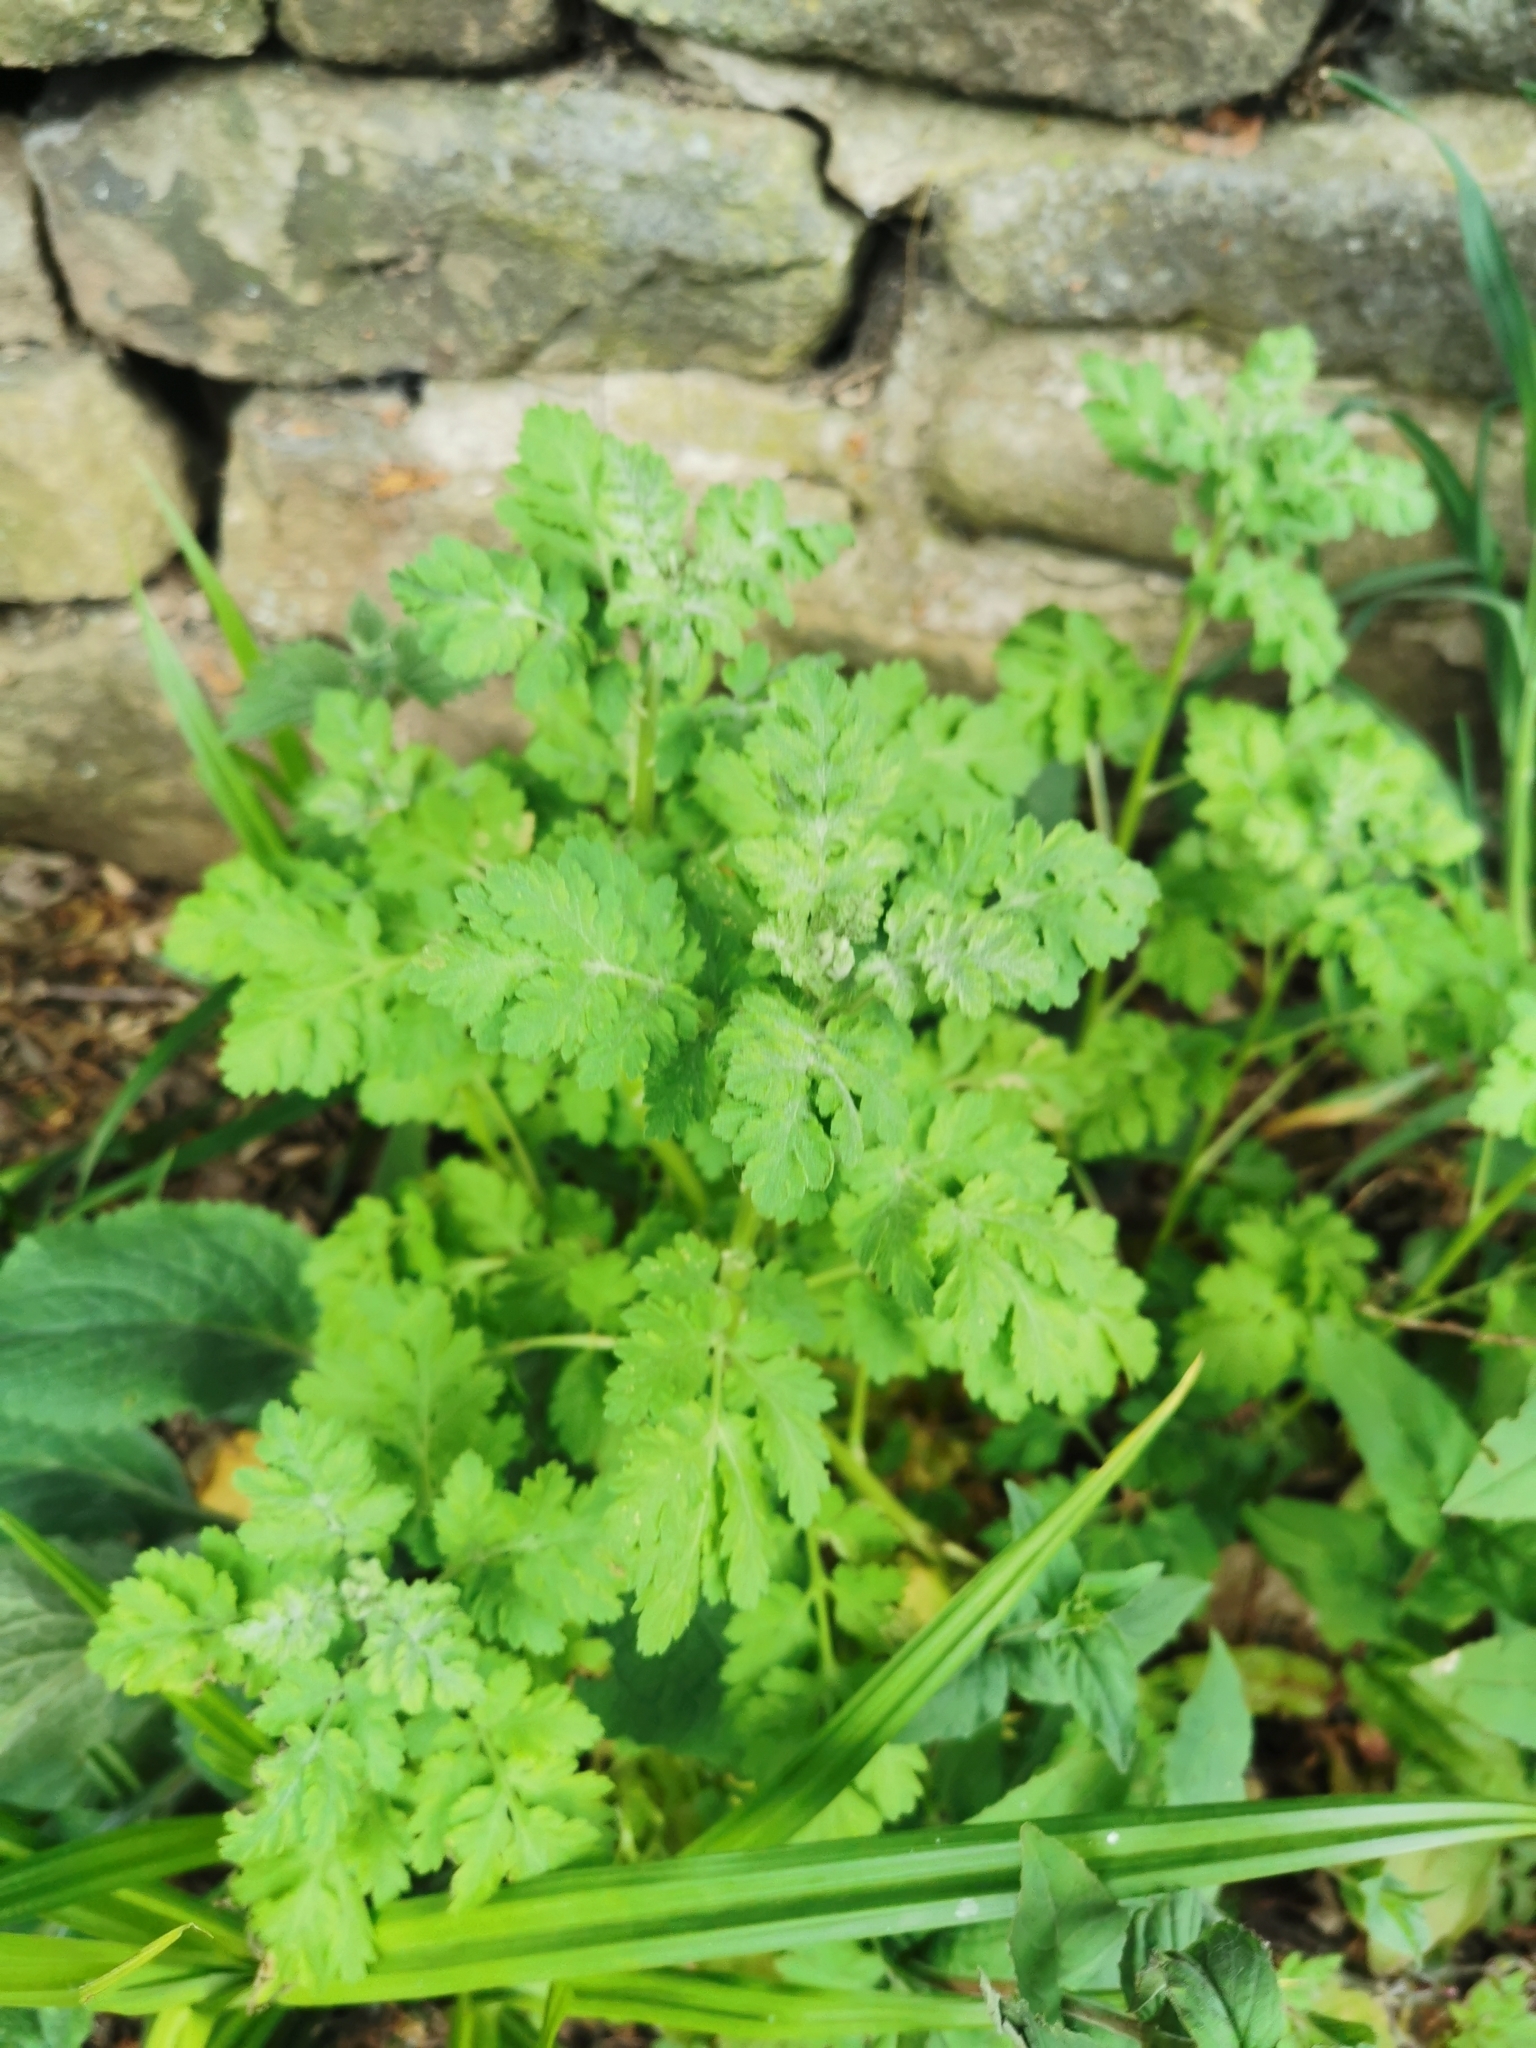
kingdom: Plantae
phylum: Tracheophyta
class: Magnoliopsida
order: Asterales
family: Asteraceae
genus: Tanacetum
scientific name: Tanacetum parthenium
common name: Feverfew
